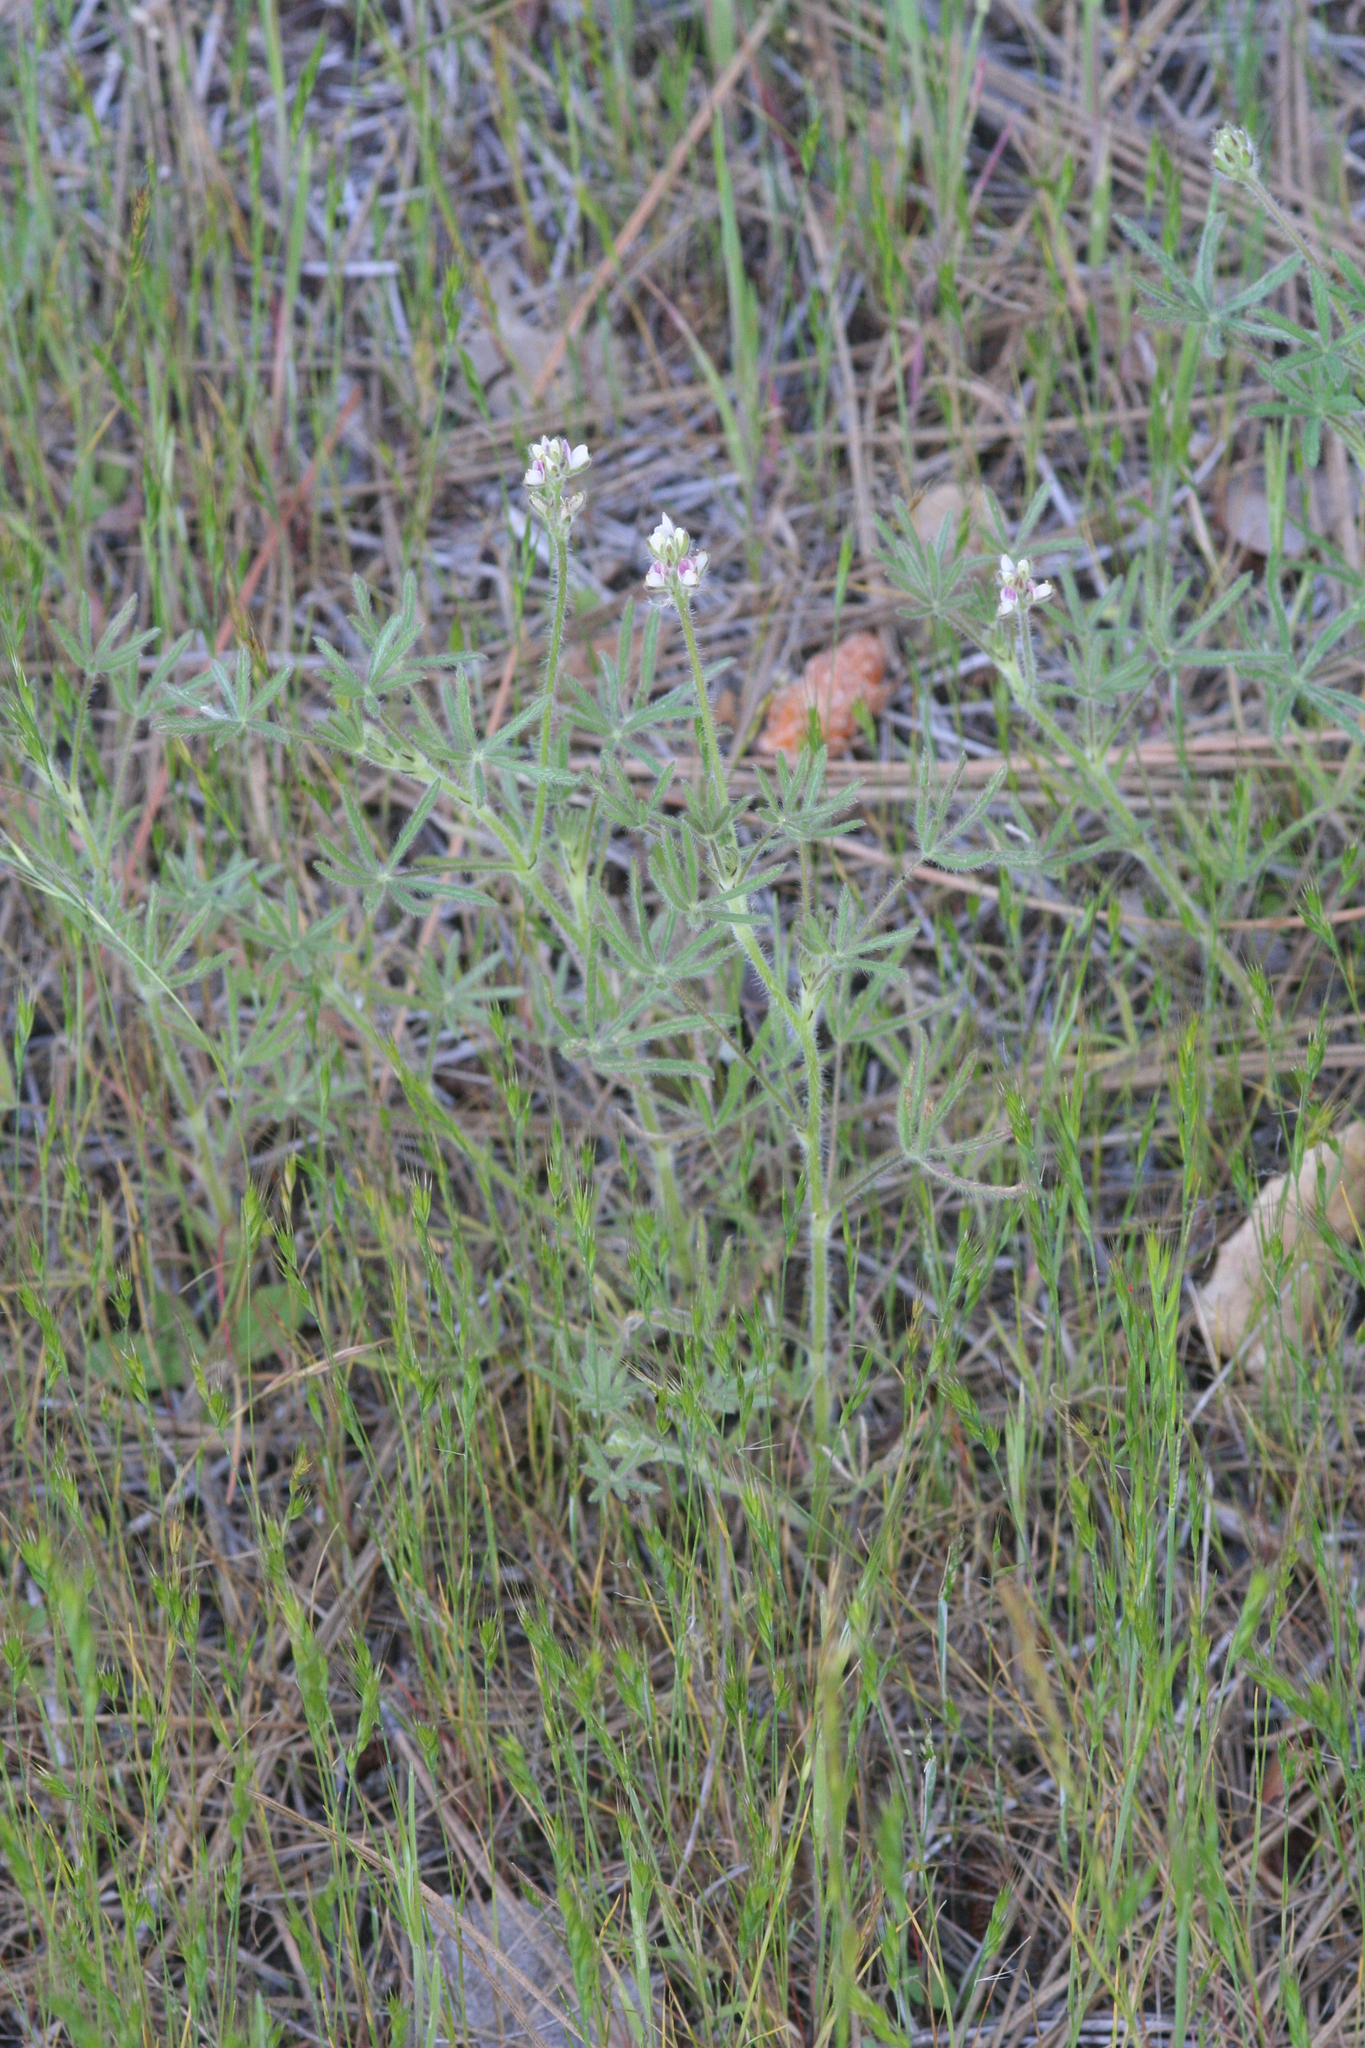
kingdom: Plantae
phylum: Tracheophyta
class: Magnoliopsida
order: Fabales
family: Fabaceae
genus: Lupinus
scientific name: Lupinus bicolor
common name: Miniature lupine
